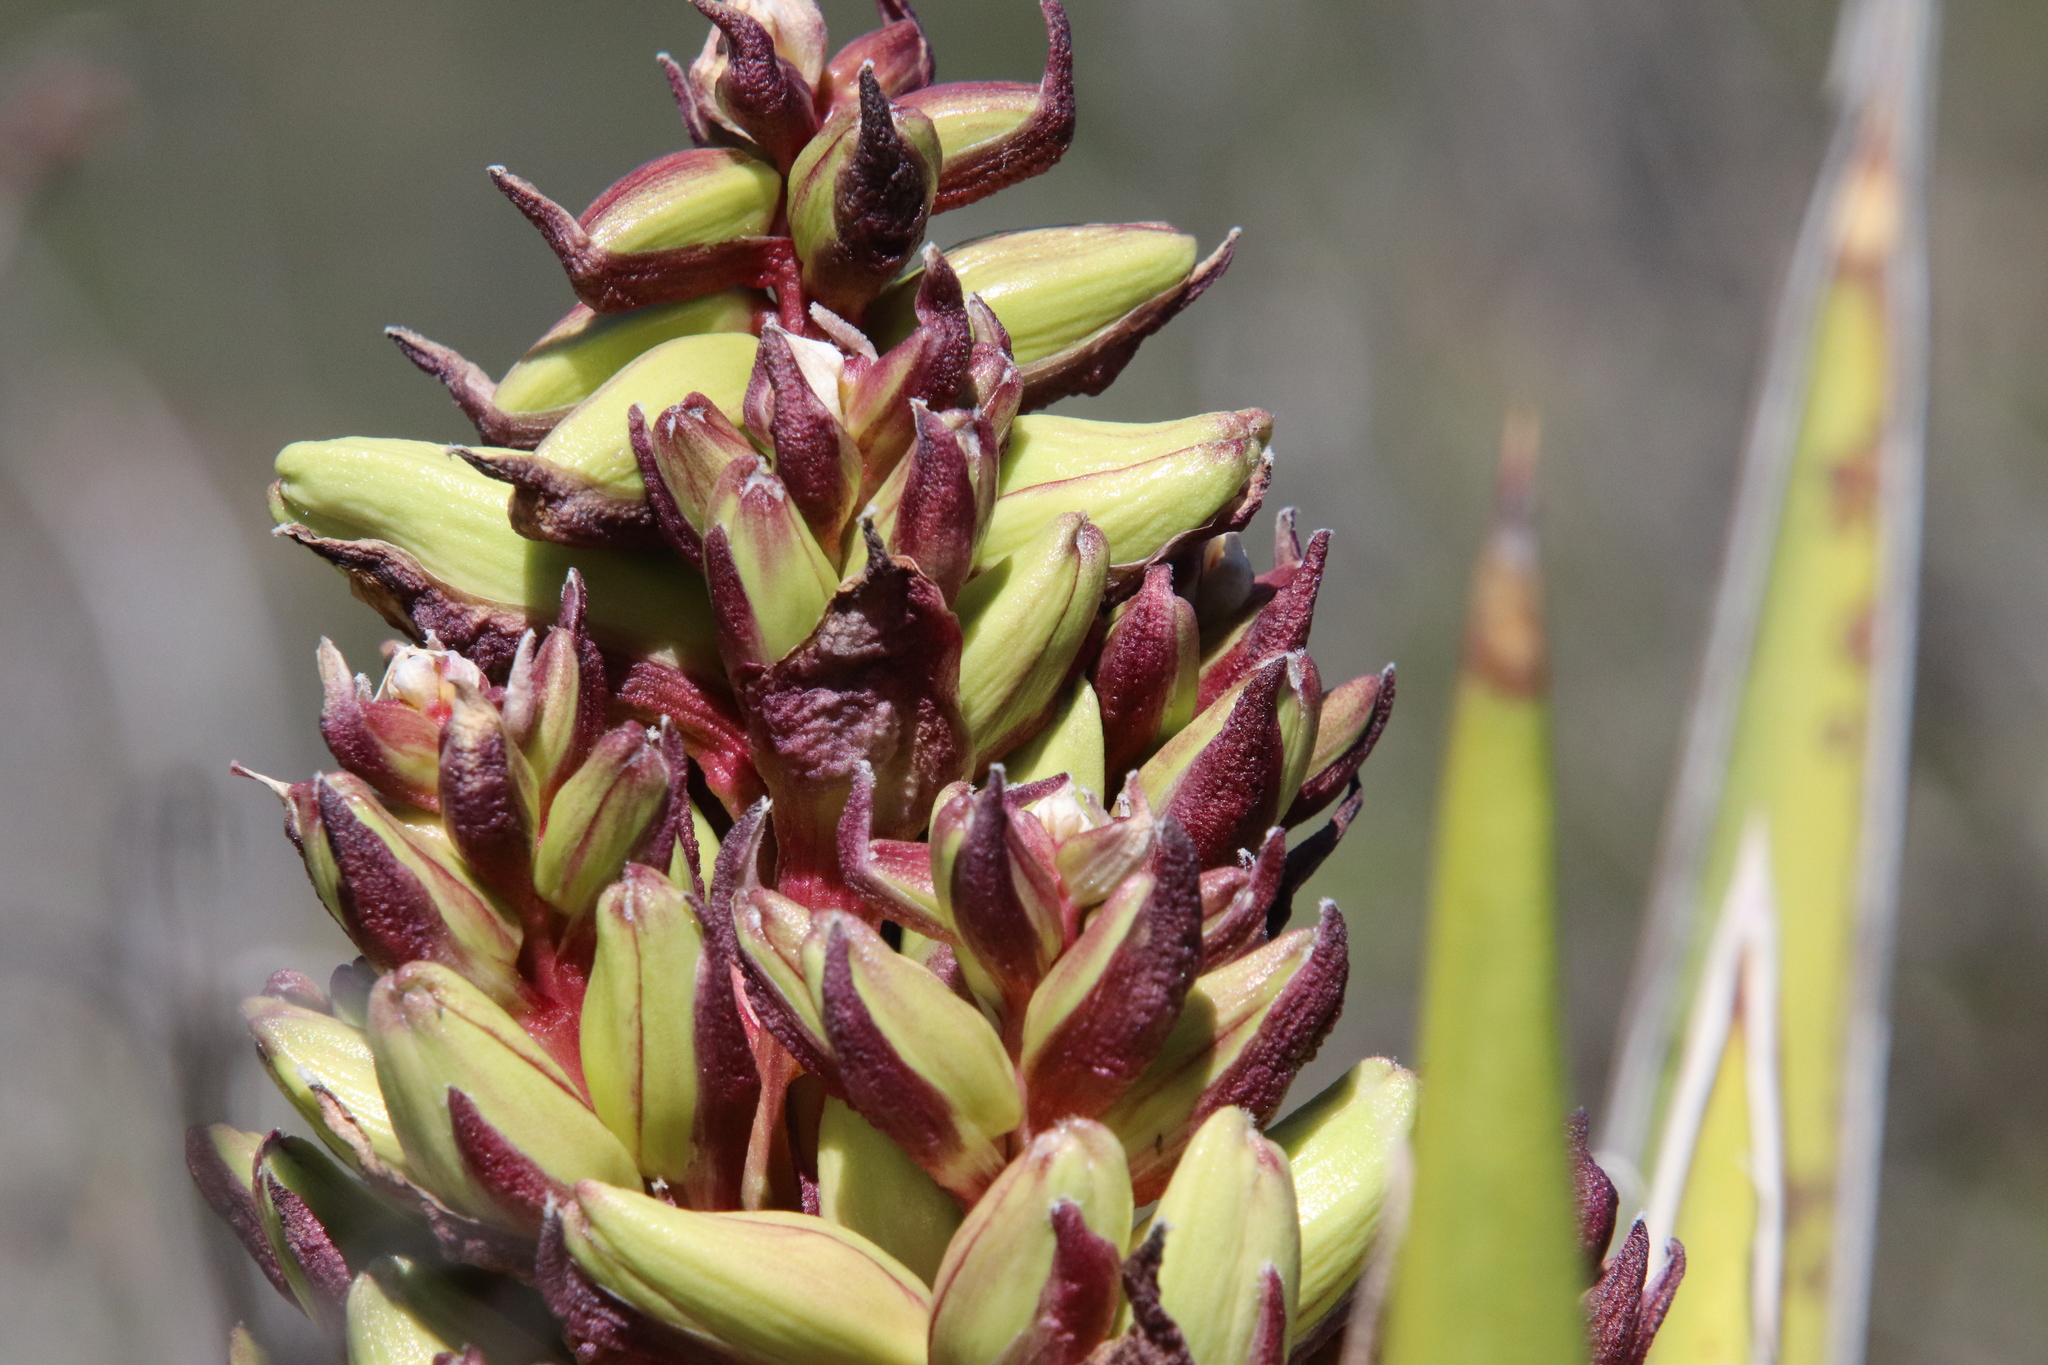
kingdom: Plantae
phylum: Tracheophyta
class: Liliopsida
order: Asparagales
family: Asparagaceae
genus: Yucca
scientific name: Yucca schidigera
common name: Mojave yucca
